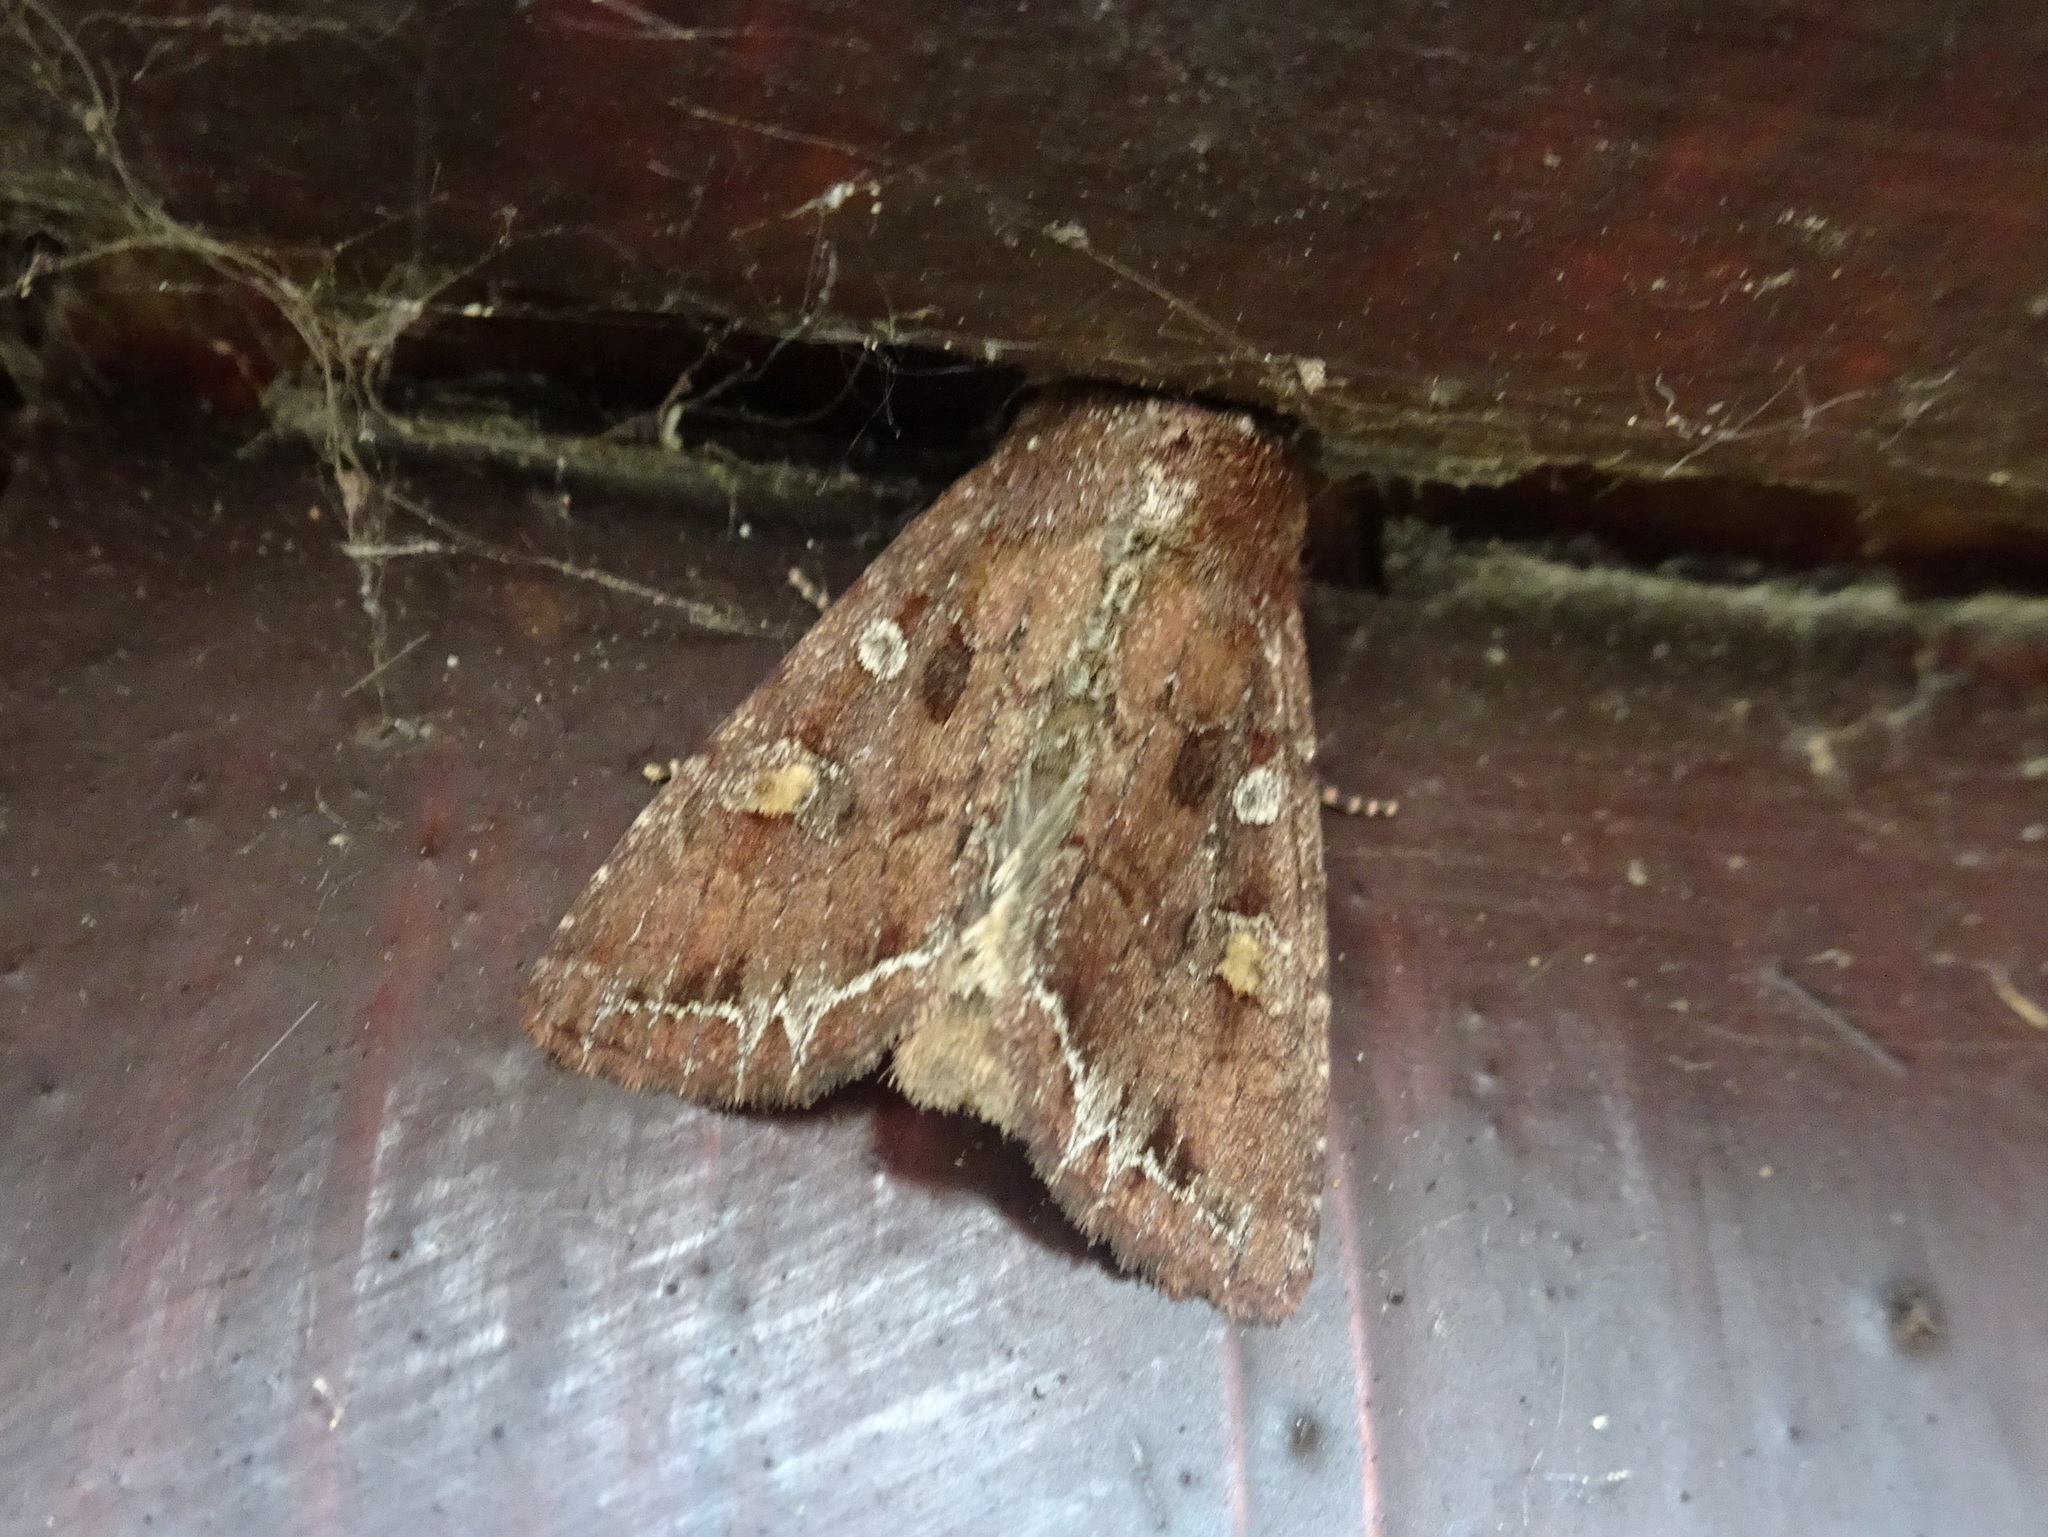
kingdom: Animalia
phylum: Arthropoda
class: Insecta
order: Lepidoptera
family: Noctuidae
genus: Lacanobia
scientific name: Lacanobia oleracea
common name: Bright-line brown-eye
